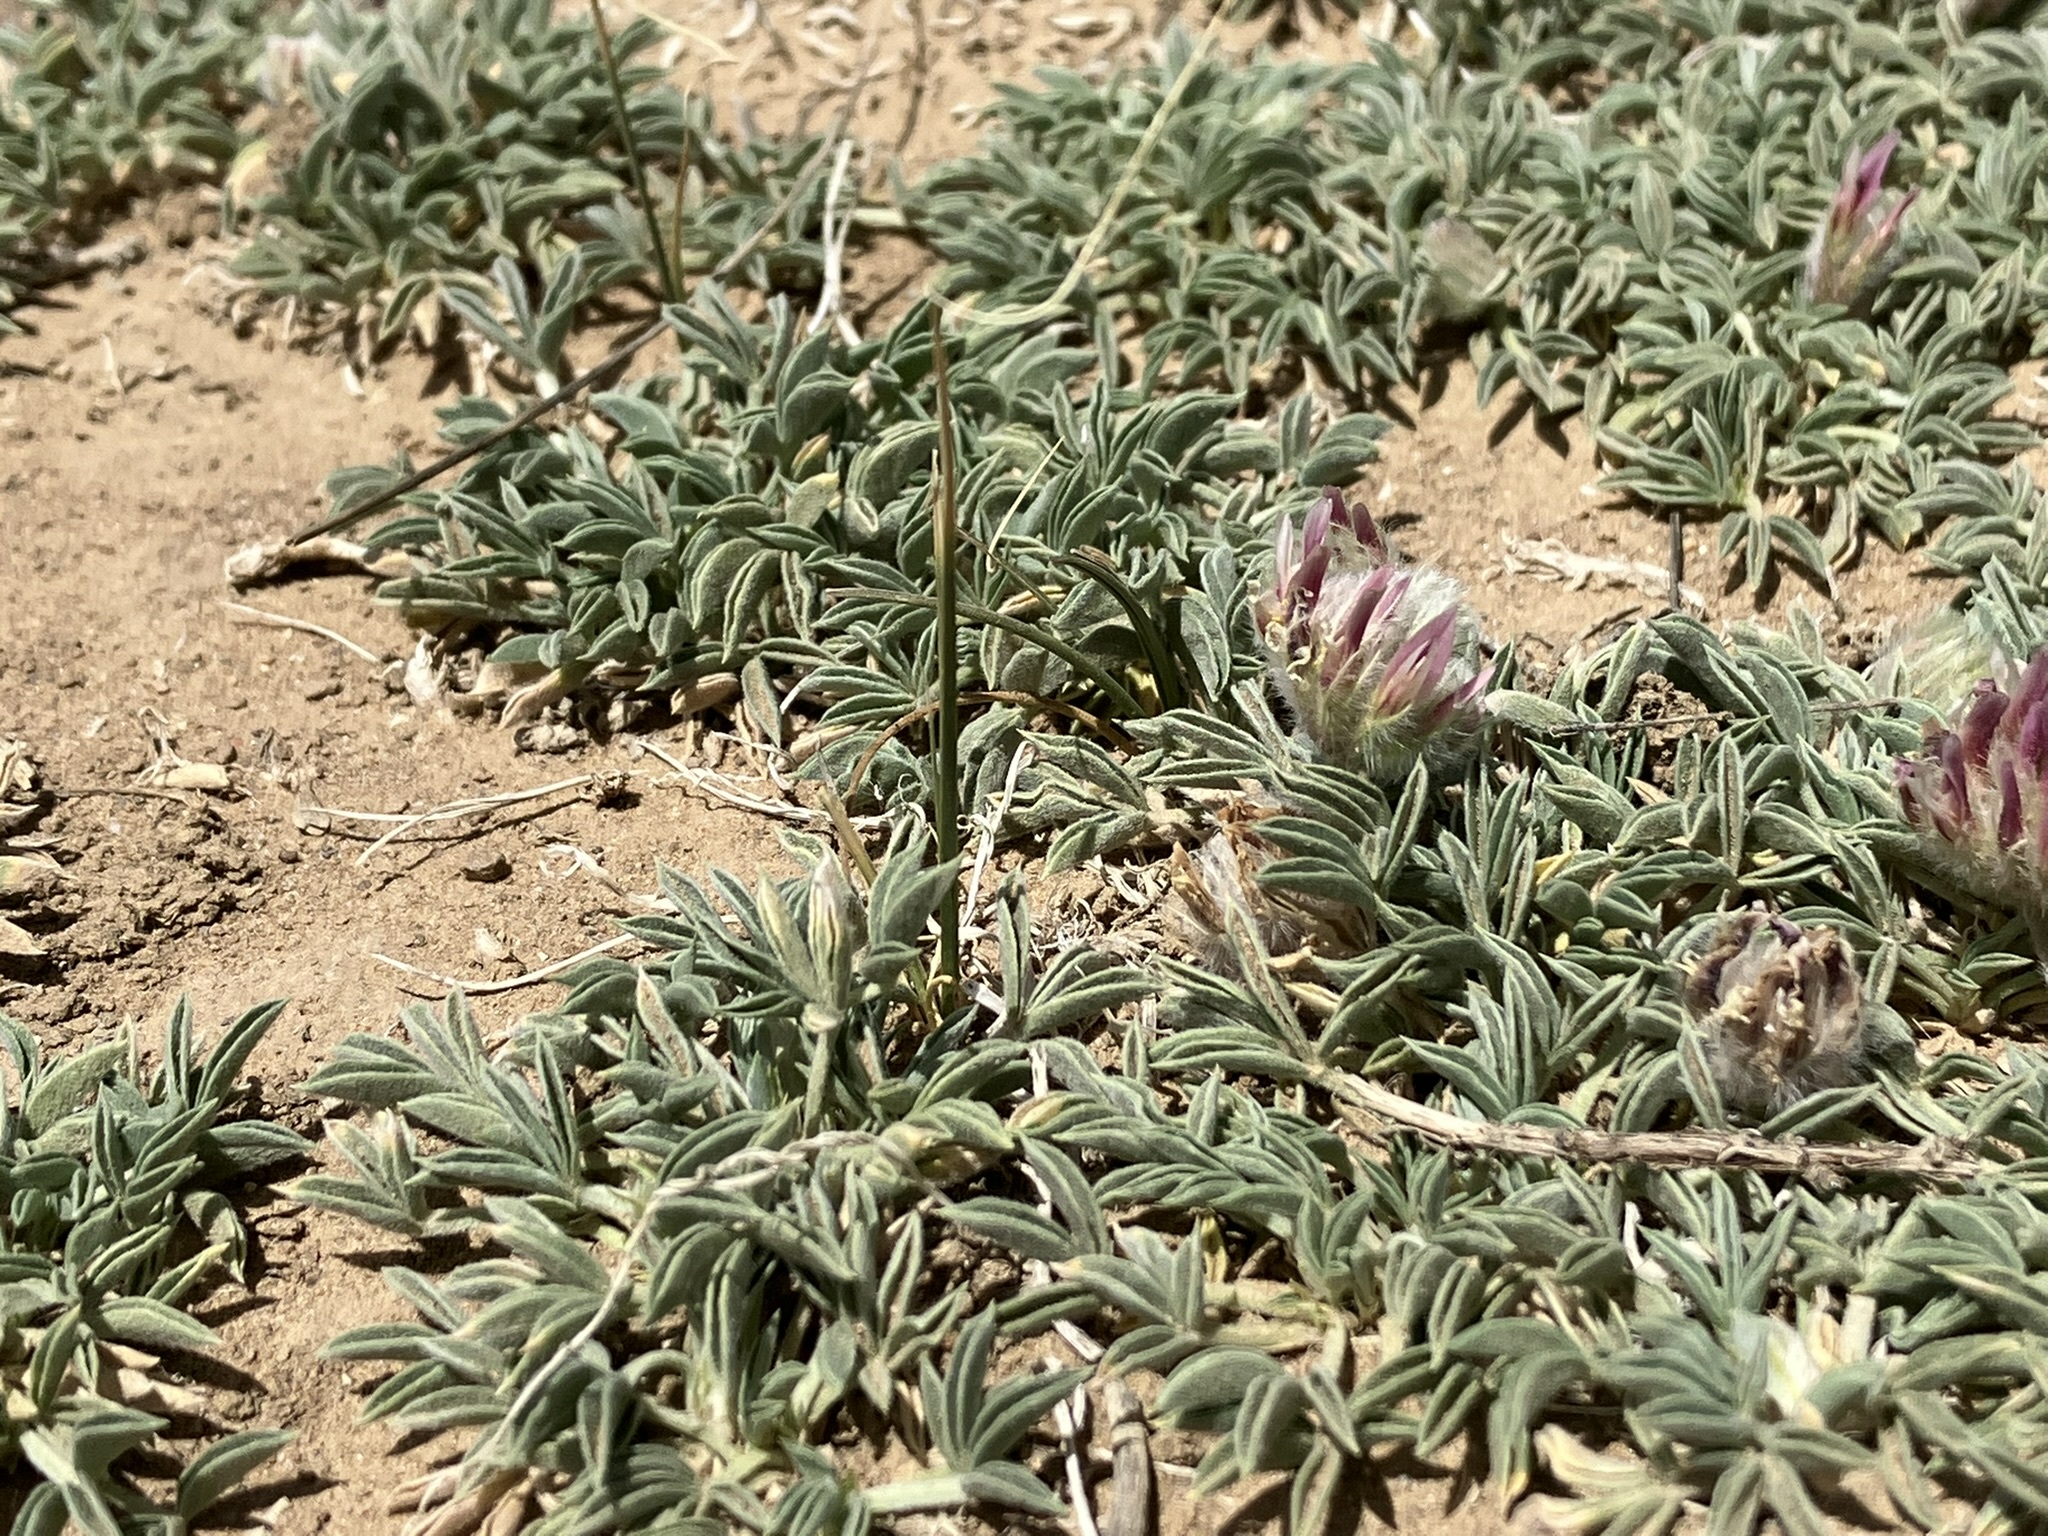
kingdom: Plantae
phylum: Tracheophyta
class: Magnoliopsida
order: Fabales
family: Fabaceae
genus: Trifolium
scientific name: Trifolium andersonii
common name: Anderson's clover
